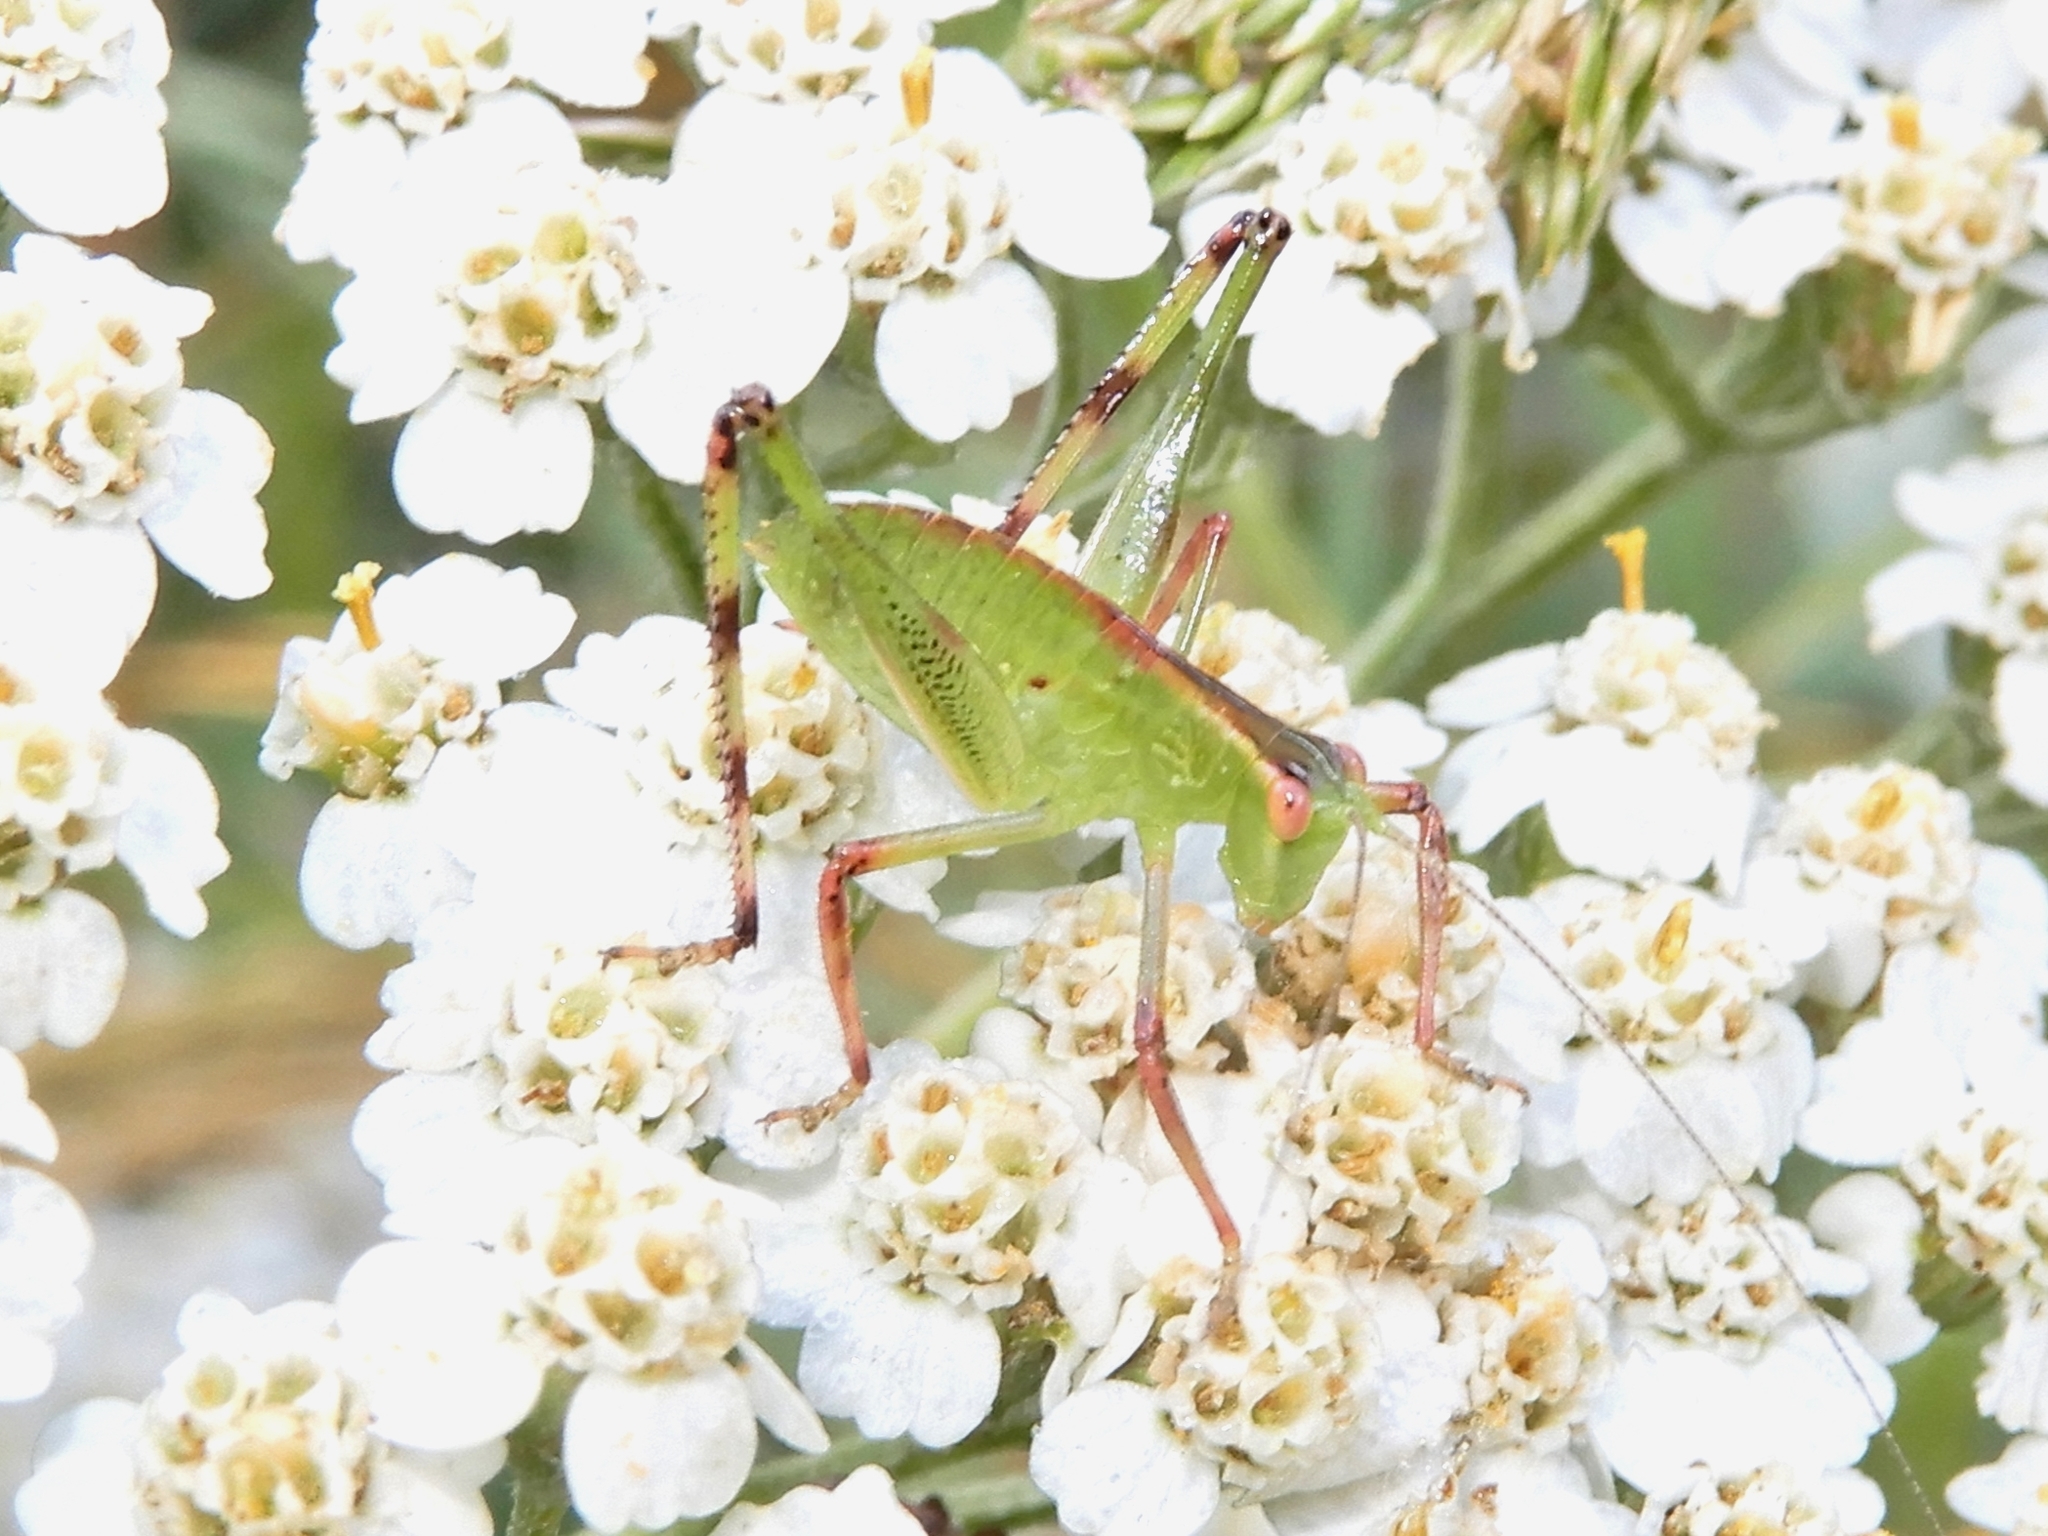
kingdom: Animalia
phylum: Arthropoda
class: Insecta
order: Orthoptera
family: Tettigoniidae
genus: Caedicia
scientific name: Caedicia simplex
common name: Common garden katydid
